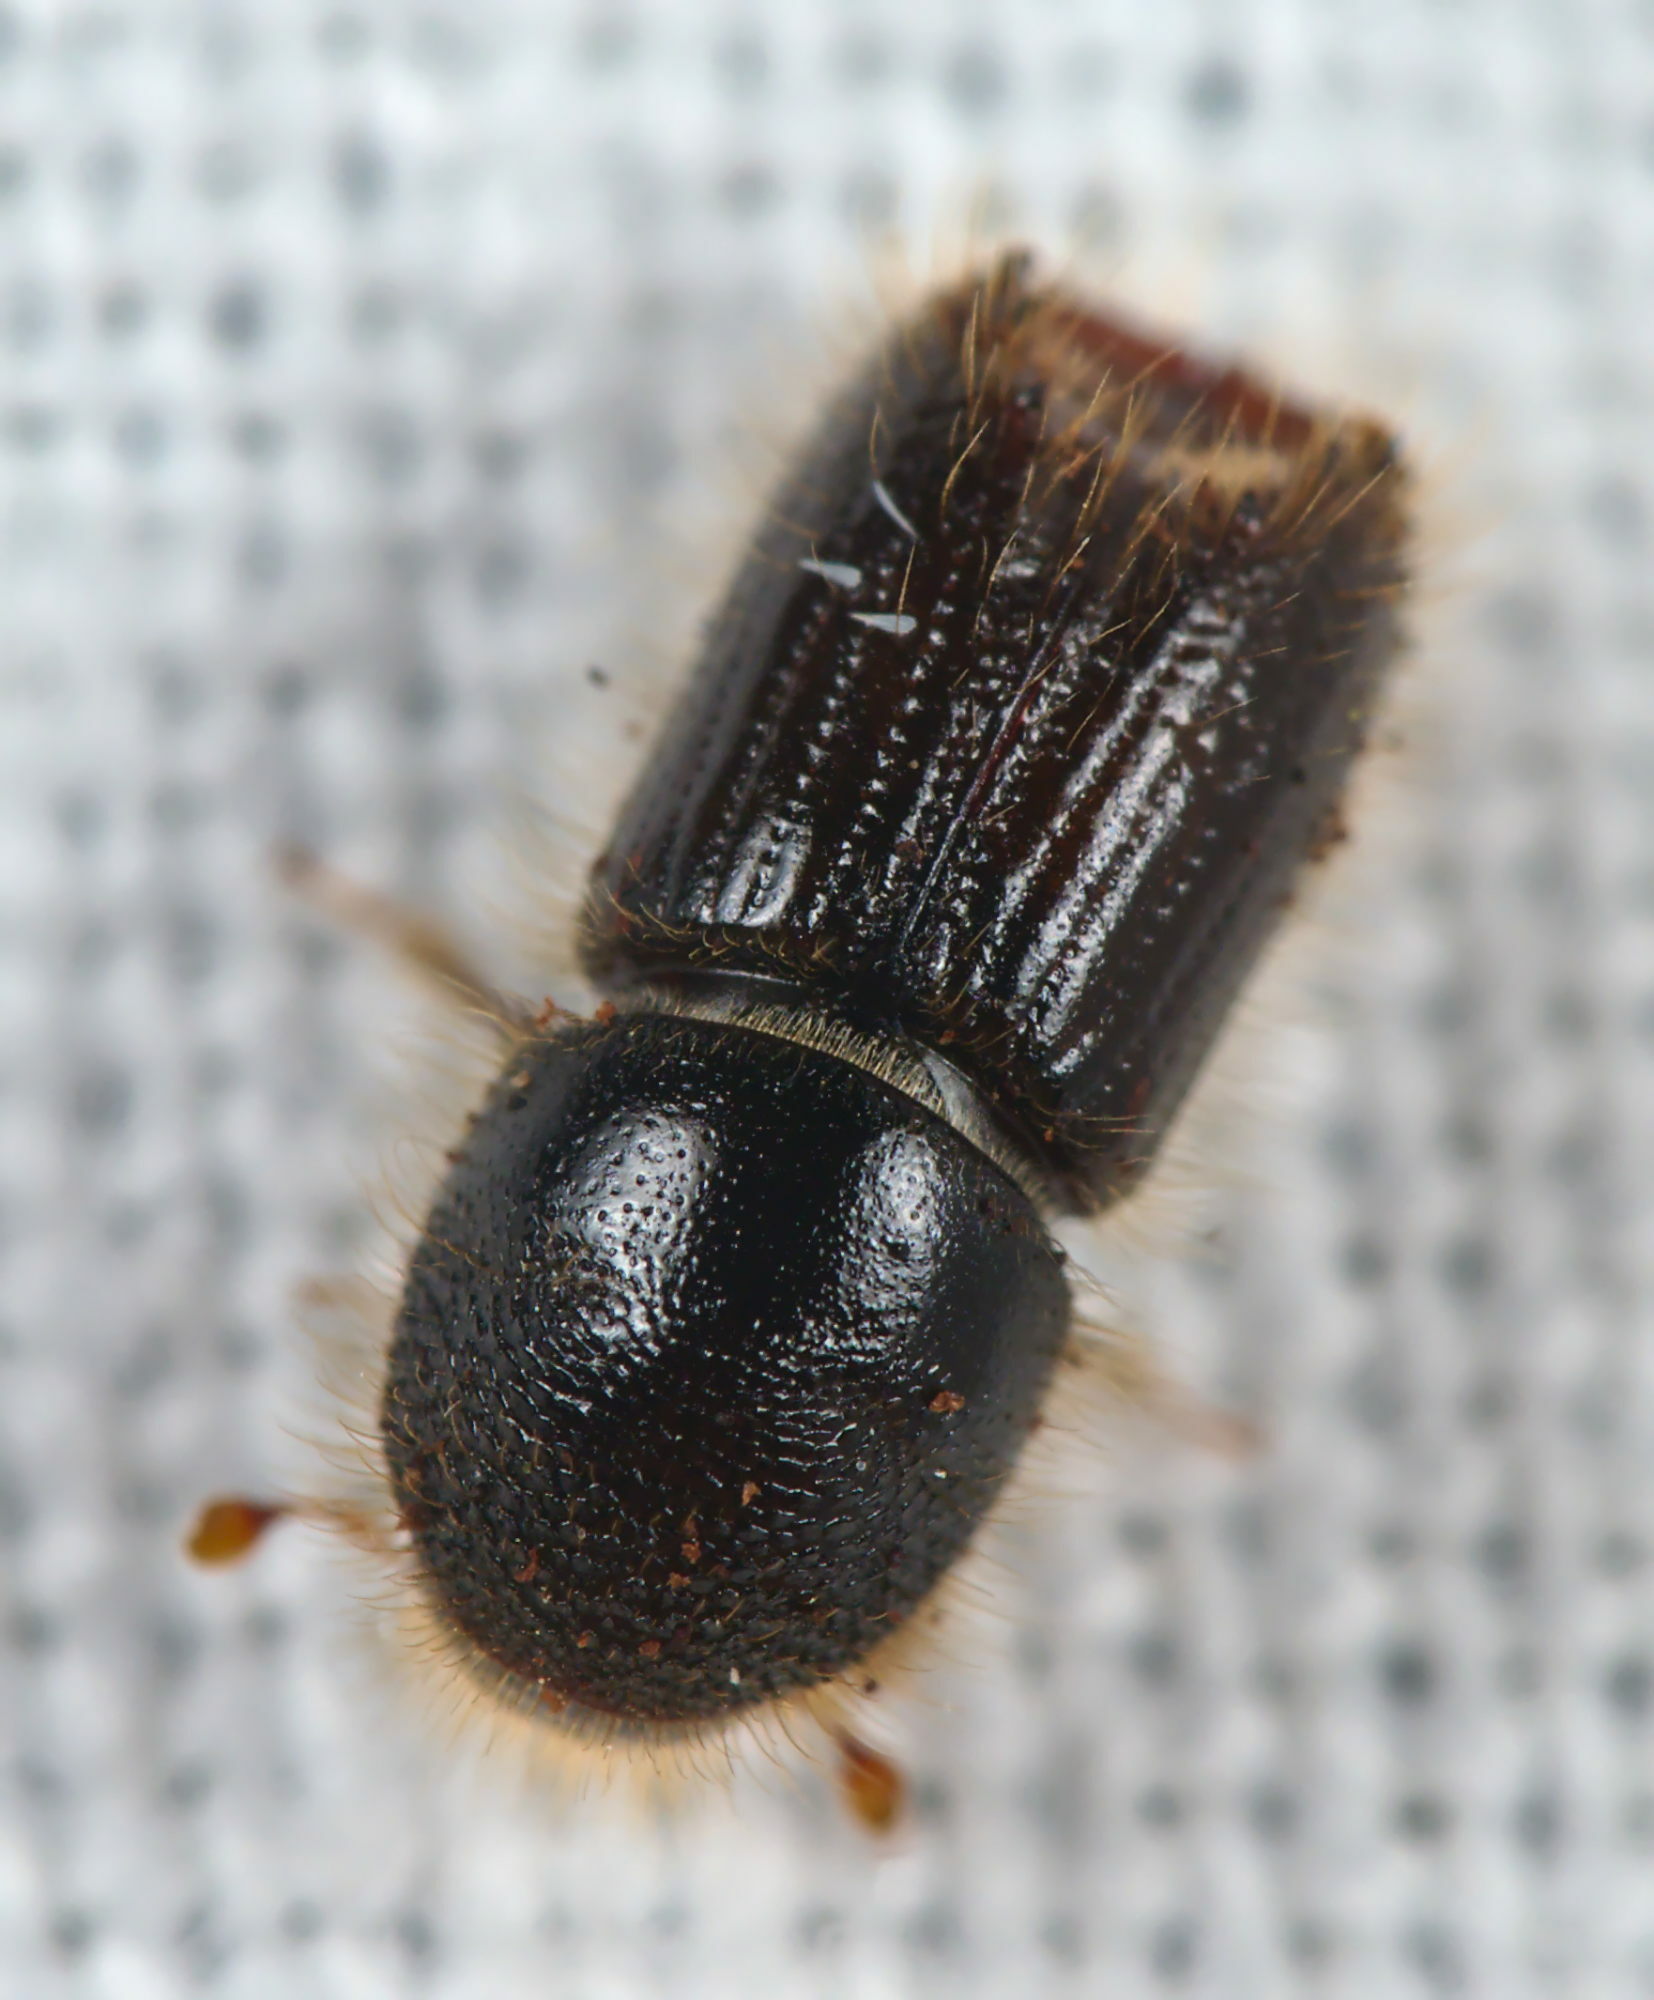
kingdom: Animalia
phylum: Arthropoda
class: Insecta
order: Coleoptera
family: Curculionidae
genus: Ips
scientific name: Ips typographus
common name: Eight-toothed spruce bark beetle
